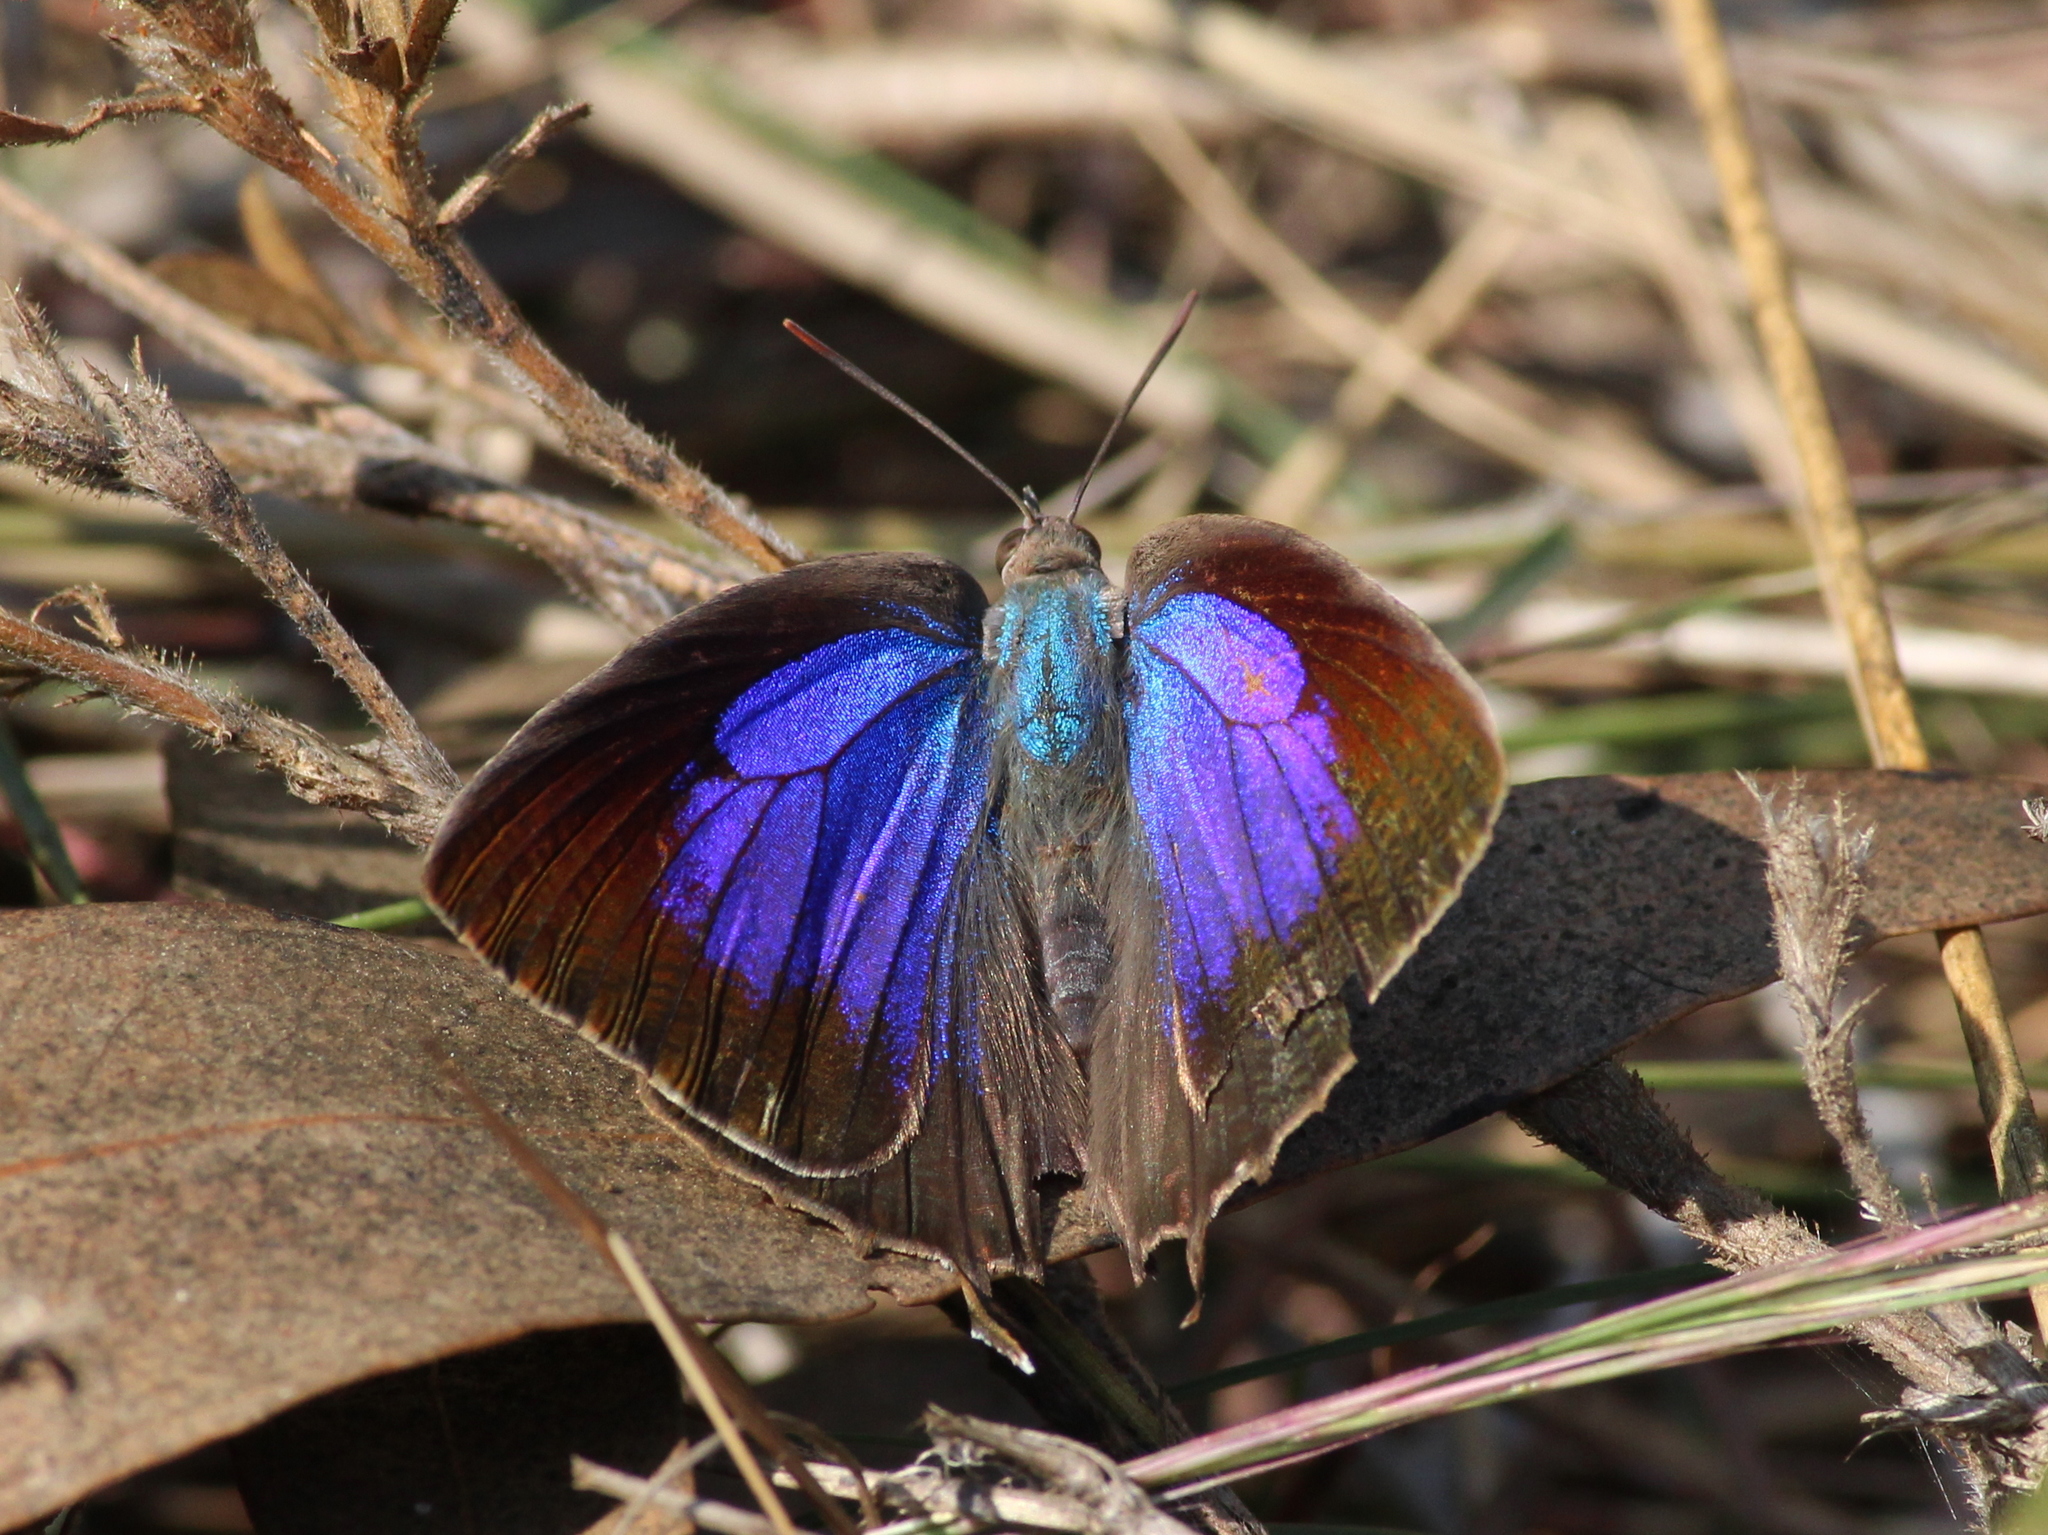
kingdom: Animalia
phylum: Arthropoda
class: Insecta
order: Lepidoptera
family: Lycaenidae
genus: Arhopala
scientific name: Arhopala amantes
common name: Large oakblue
